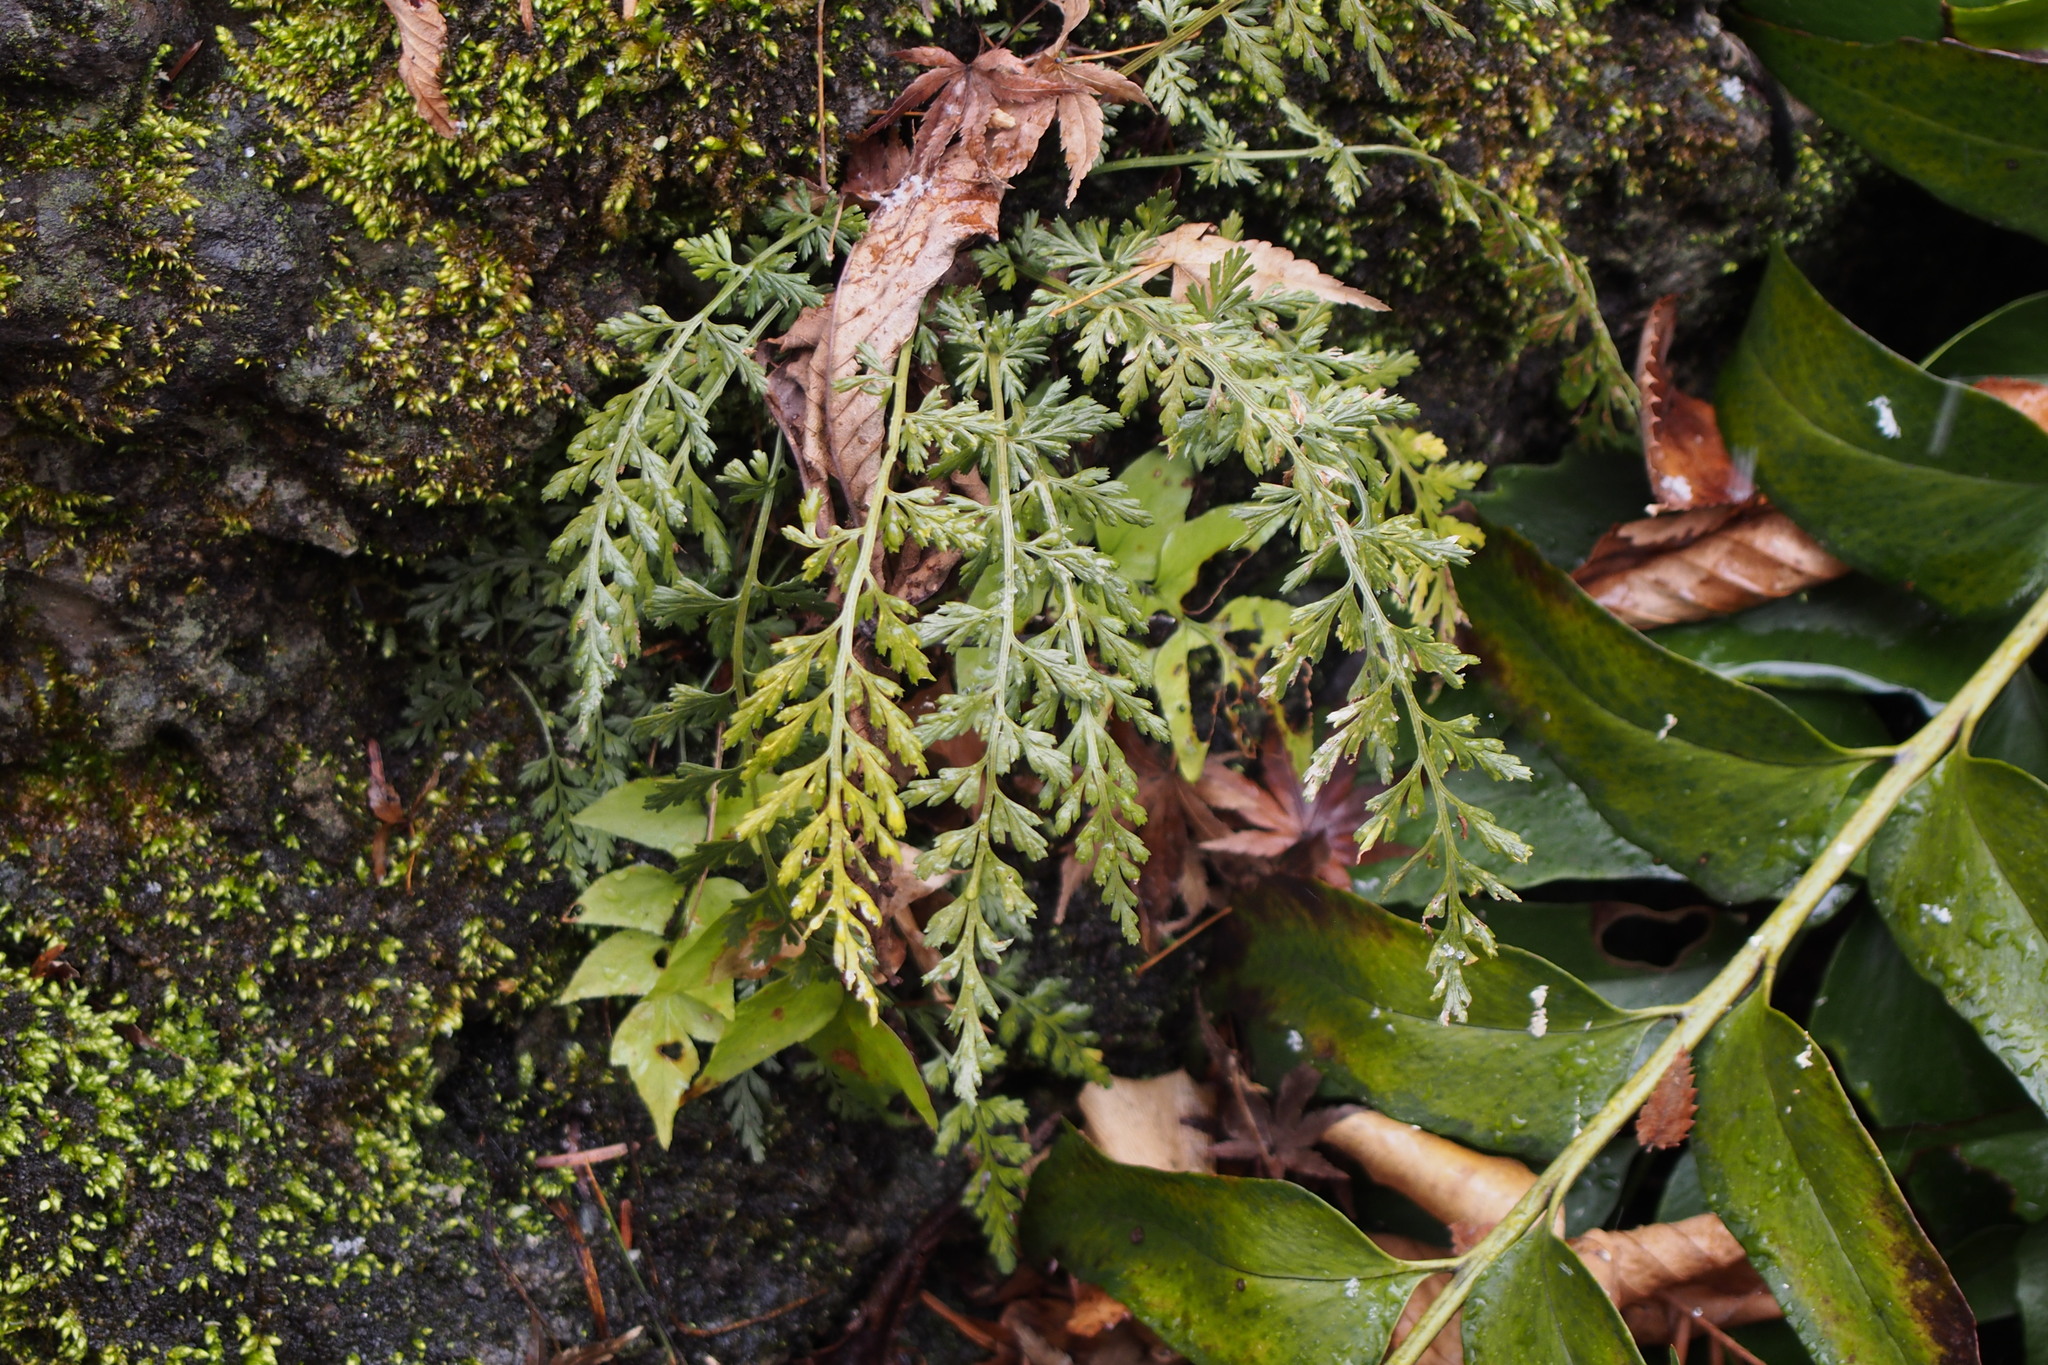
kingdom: Plantae
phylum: Tracheophyta
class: Polypodiopsida
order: Polypodiales
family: Aspleniaceae
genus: Asplenium
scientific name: Asplenium sarelii
